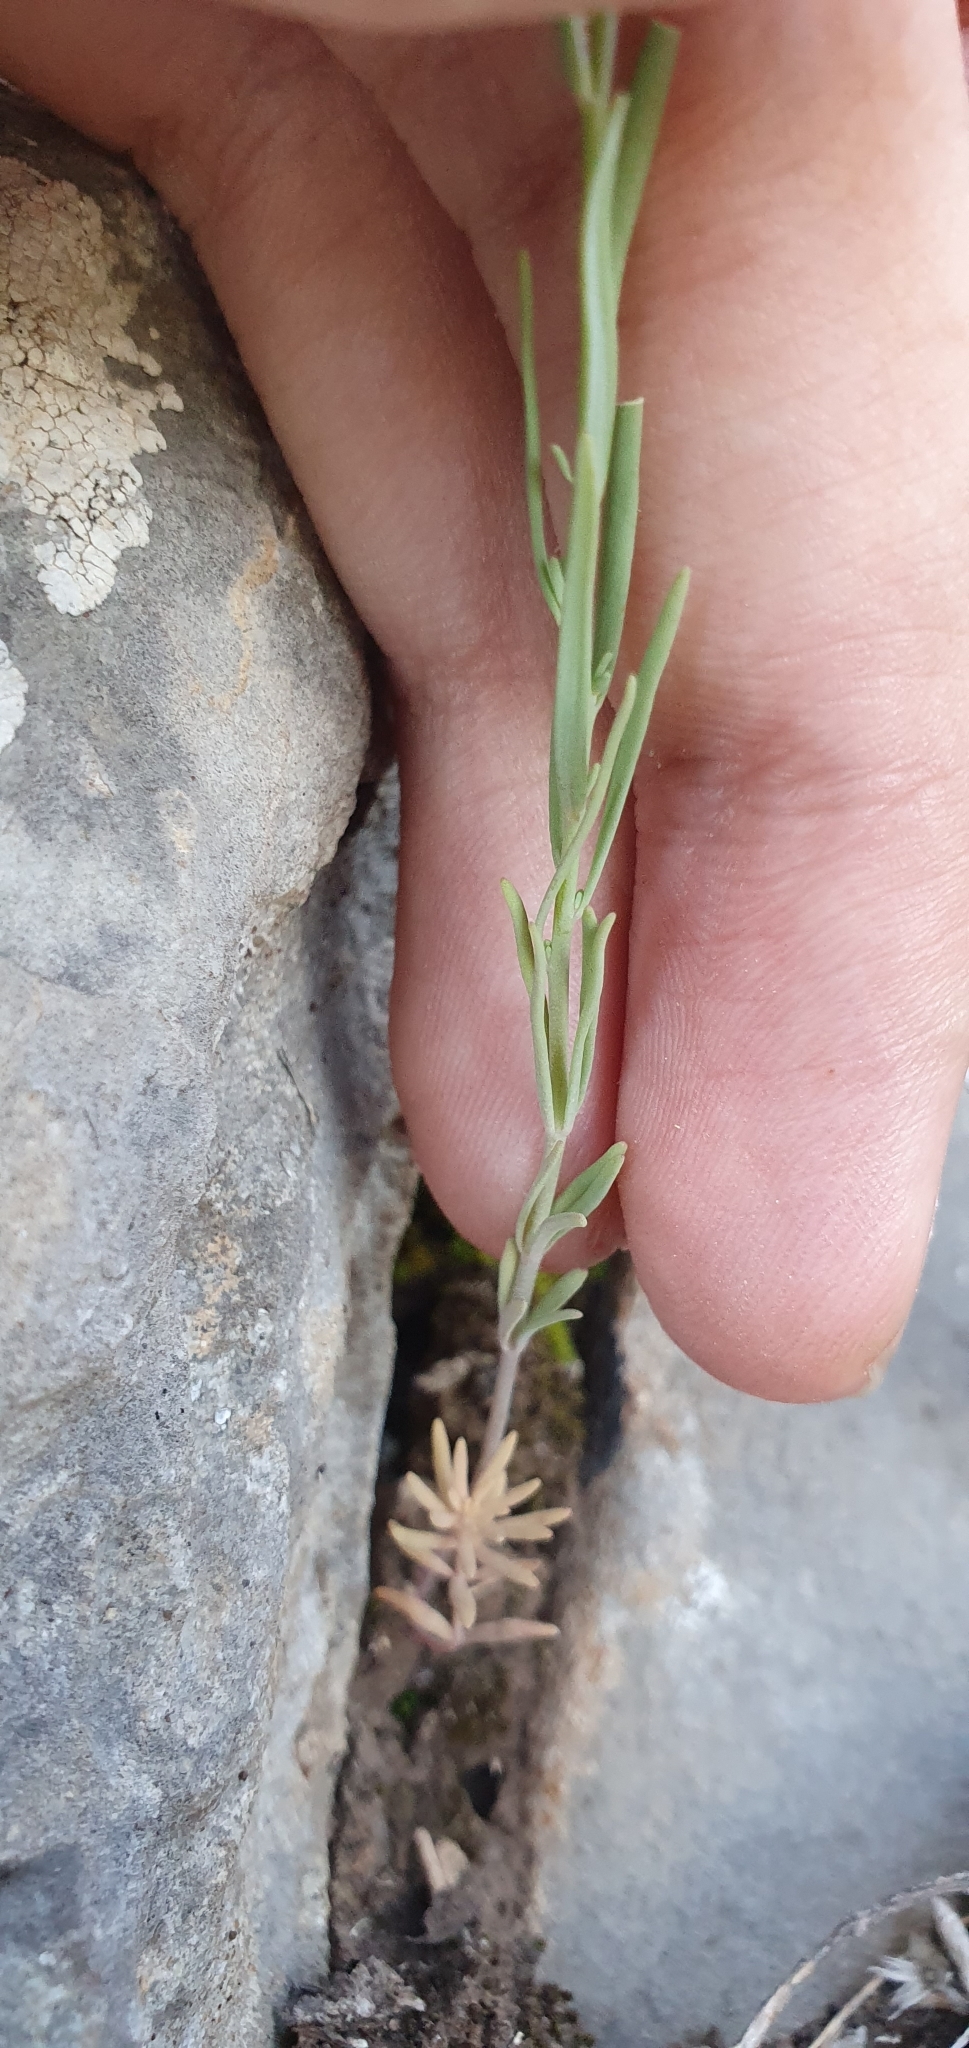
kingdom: Plantae
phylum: Tracheophyta
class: Magnoliopsida
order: Lamiales
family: Plantaginaceae
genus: Linaria
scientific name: Linaria simplex
